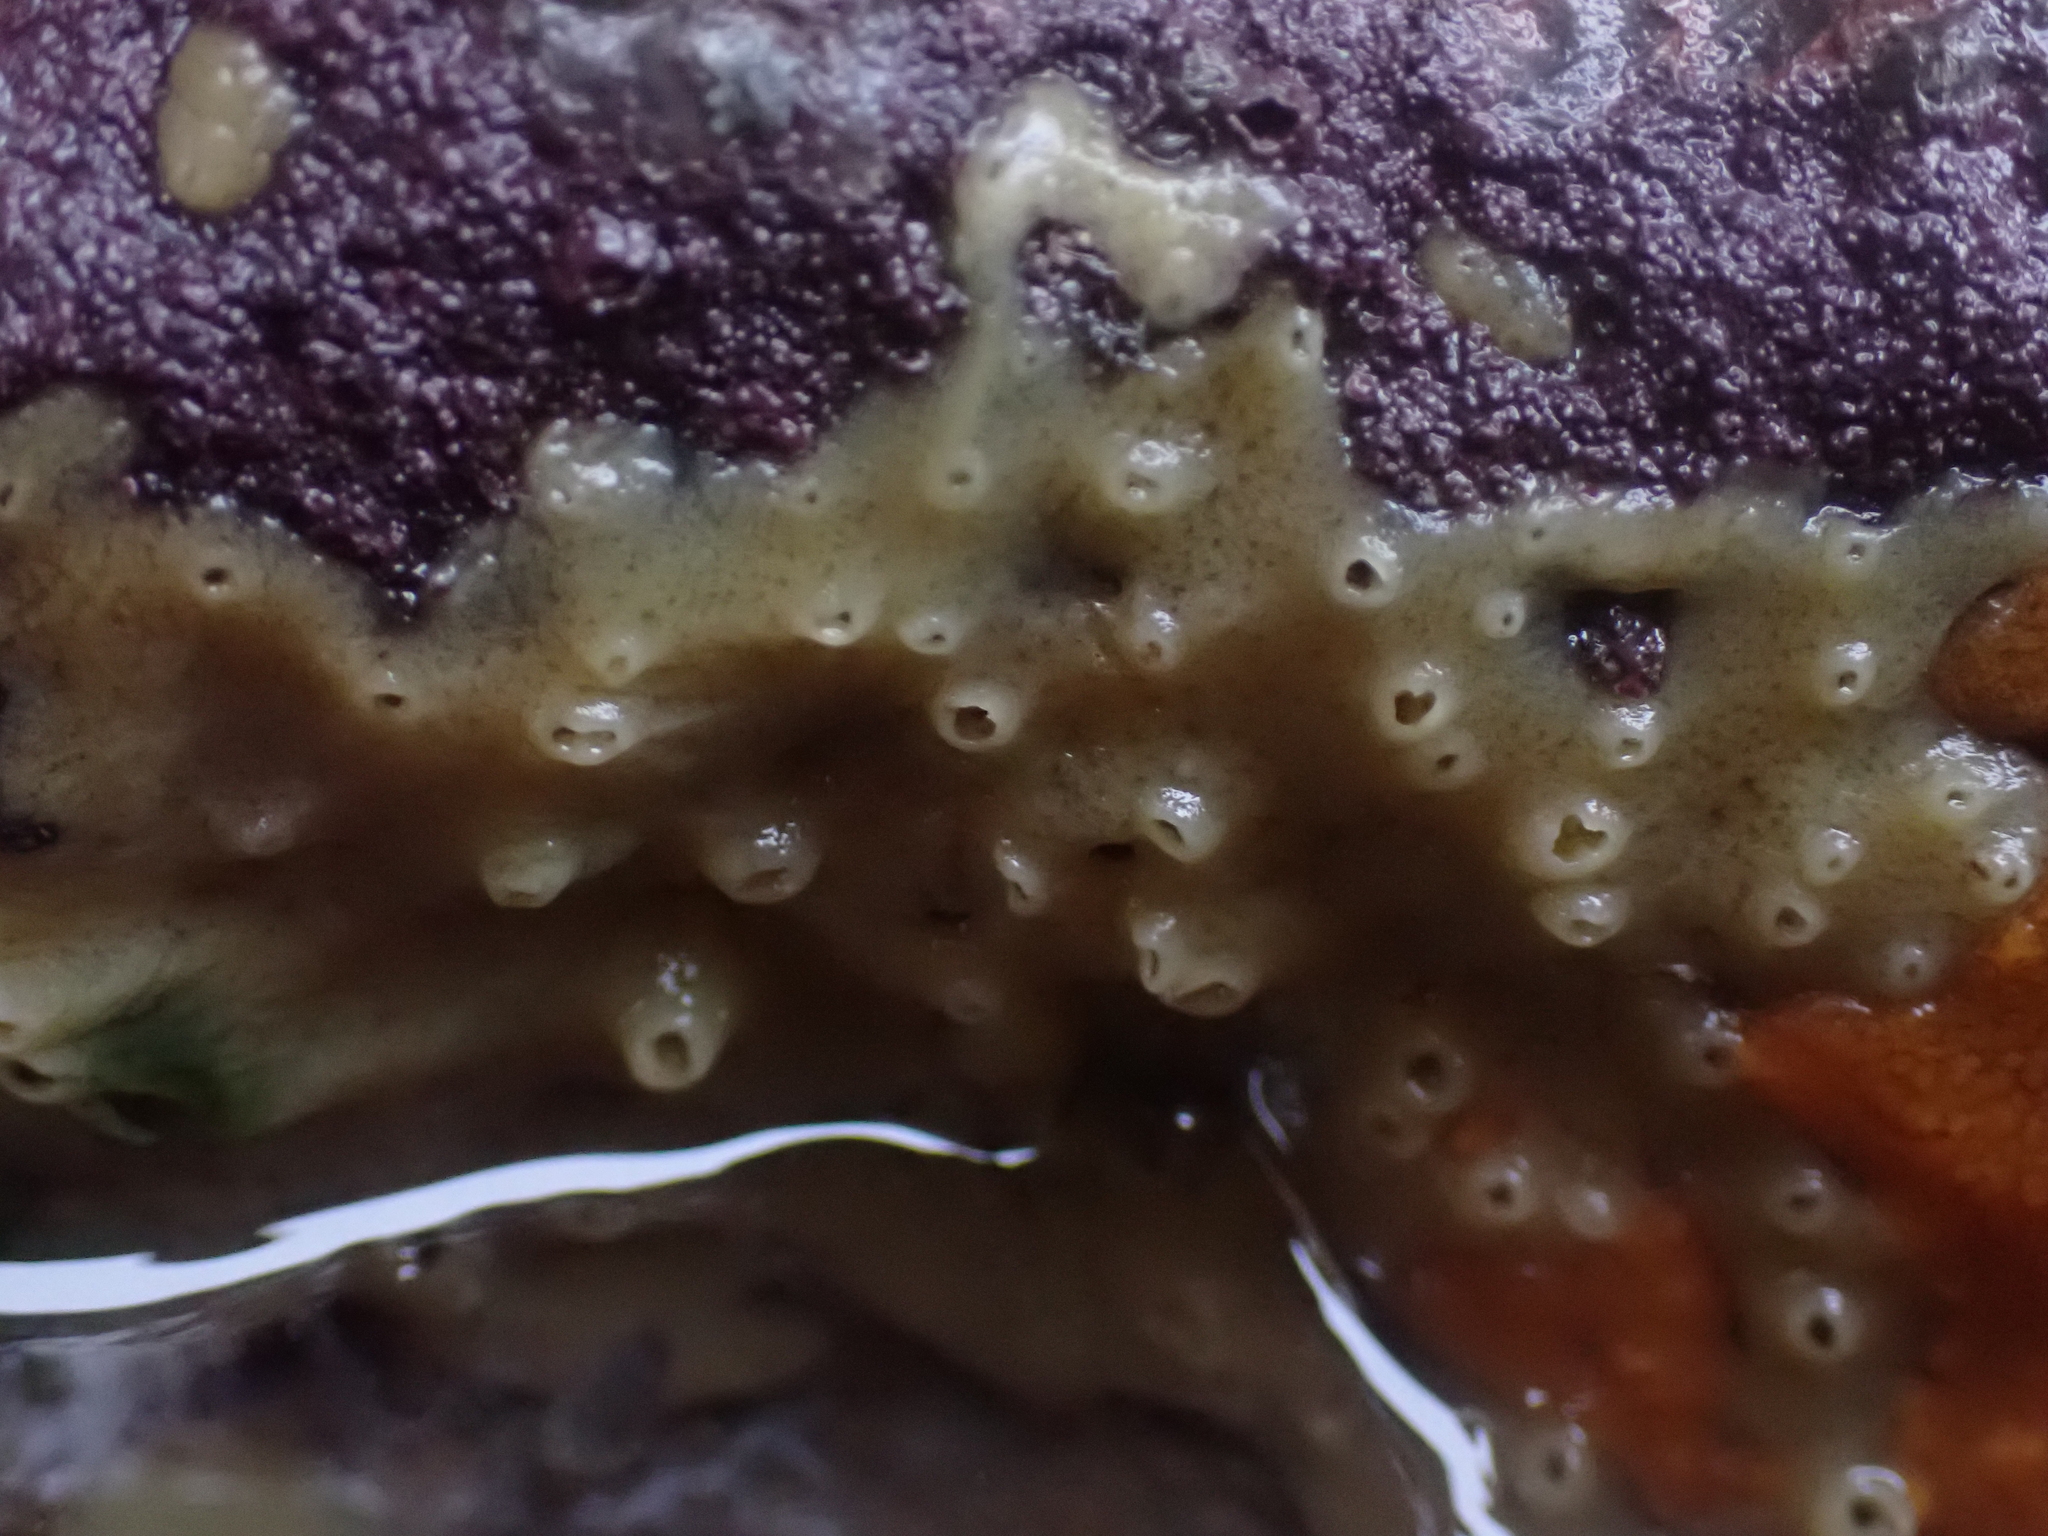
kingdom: Animalia
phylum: Porifera
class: Demospongiae
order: Suberitida
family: Halichondriidae
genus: Halichondria
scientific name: Halichondria panicea
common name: Breadcrumb sponge
